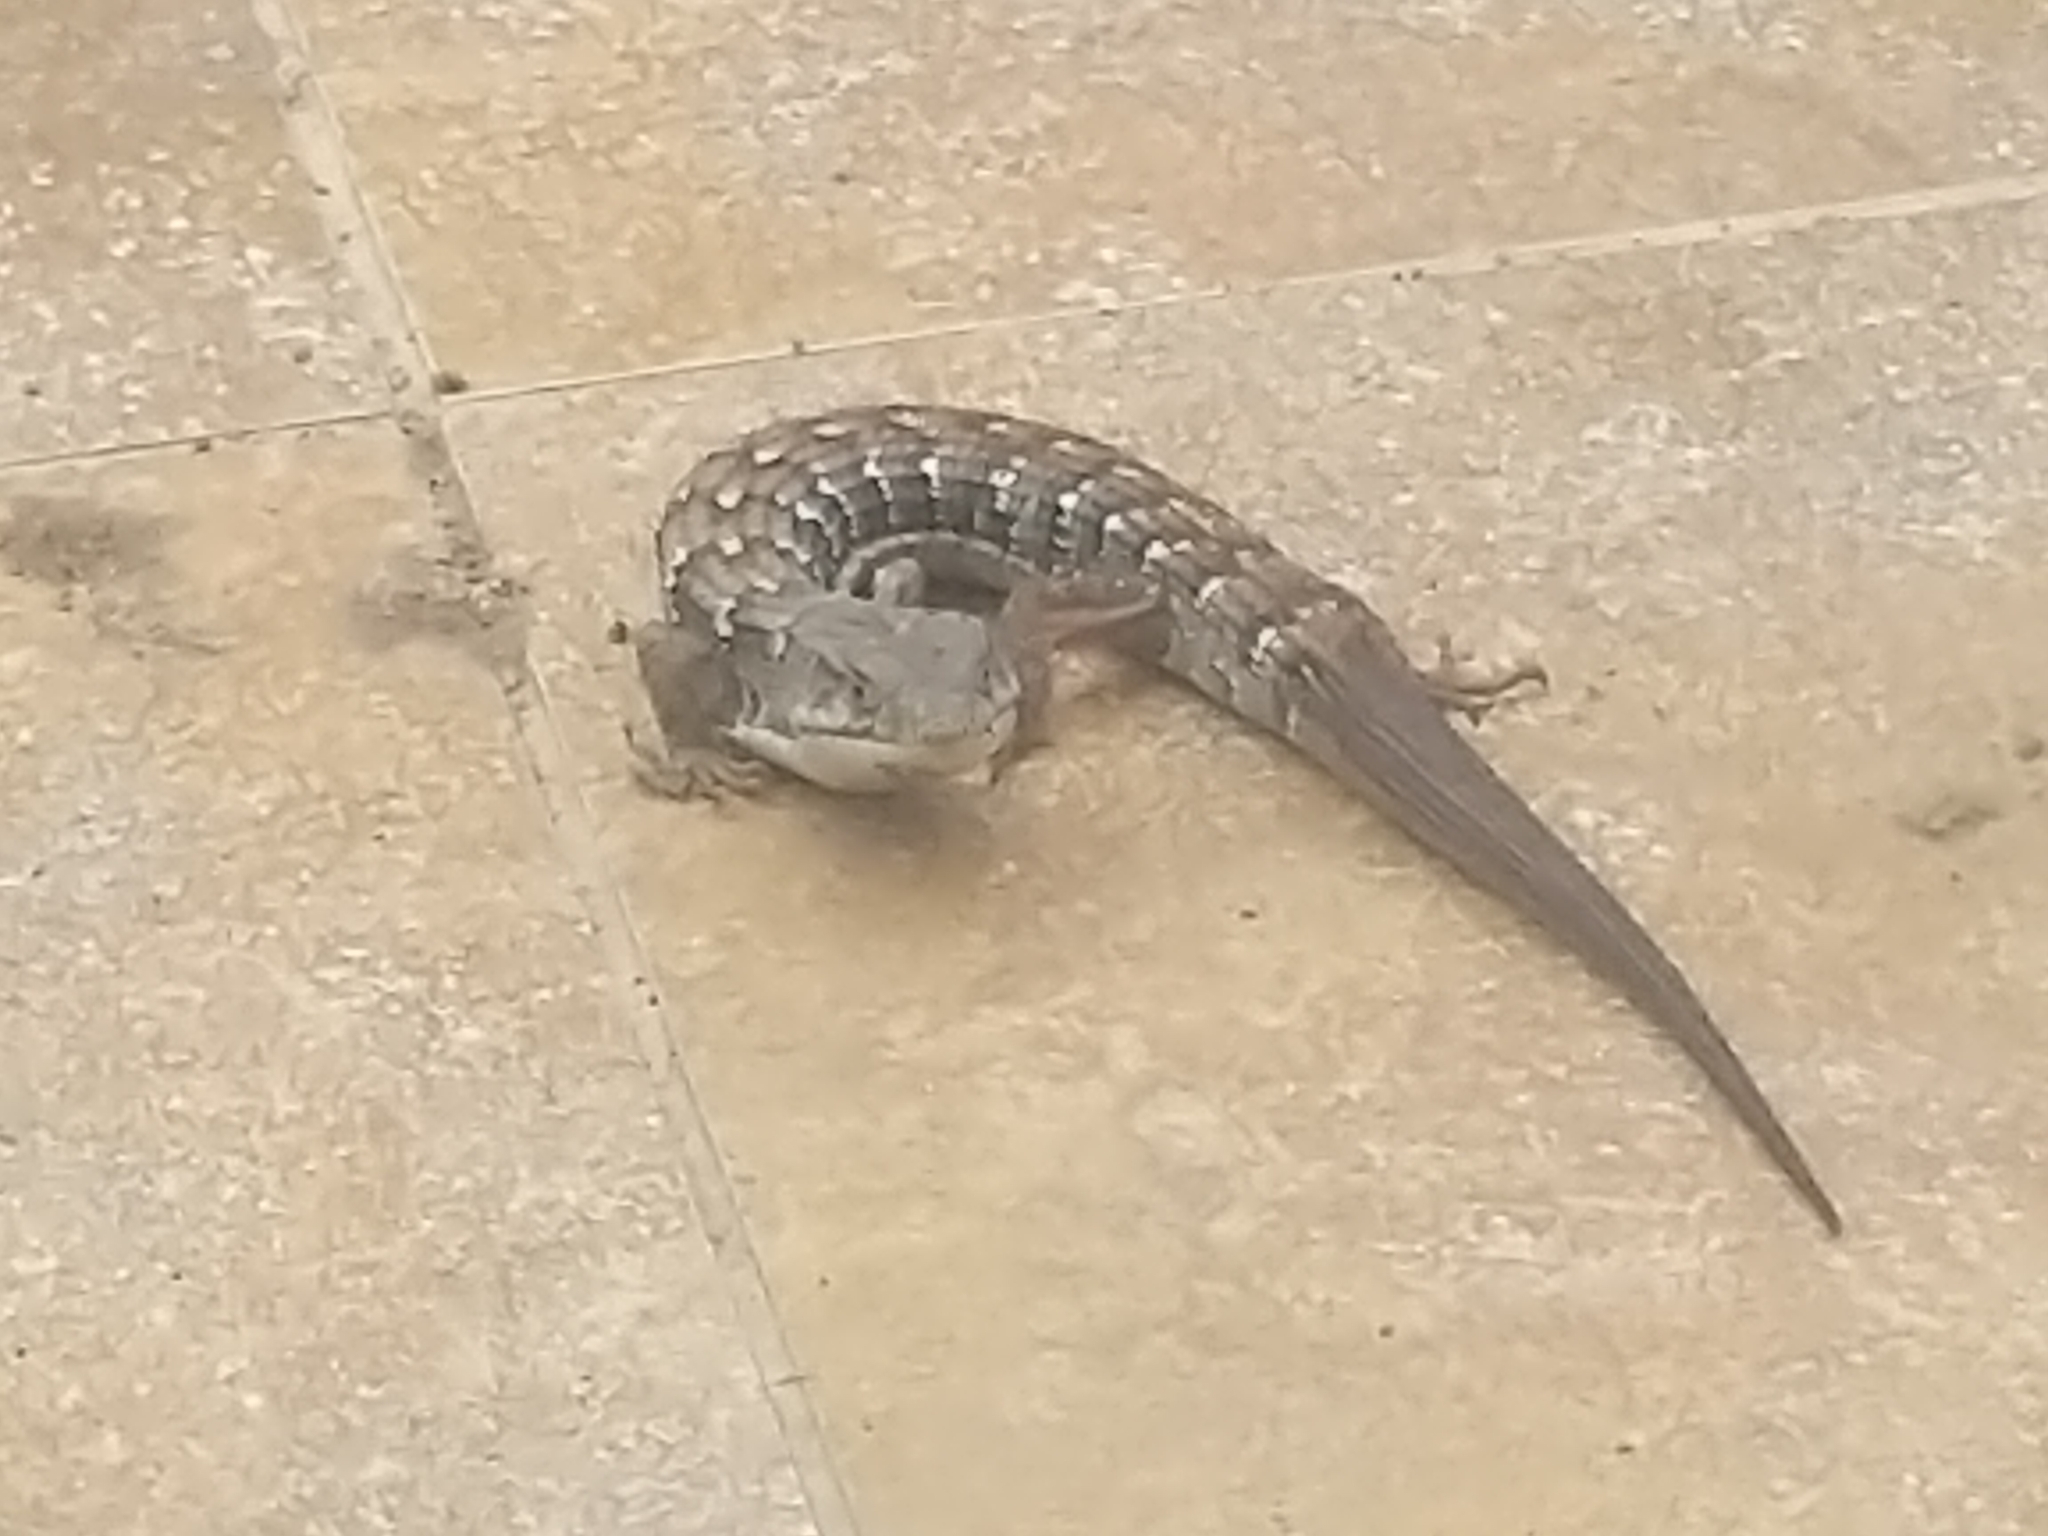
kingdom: Animalia
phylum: Chordata
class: Squamata
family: Anguidae
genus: Elgaria
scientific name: Elgaria multicarinata
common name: Southern alligator lizard
